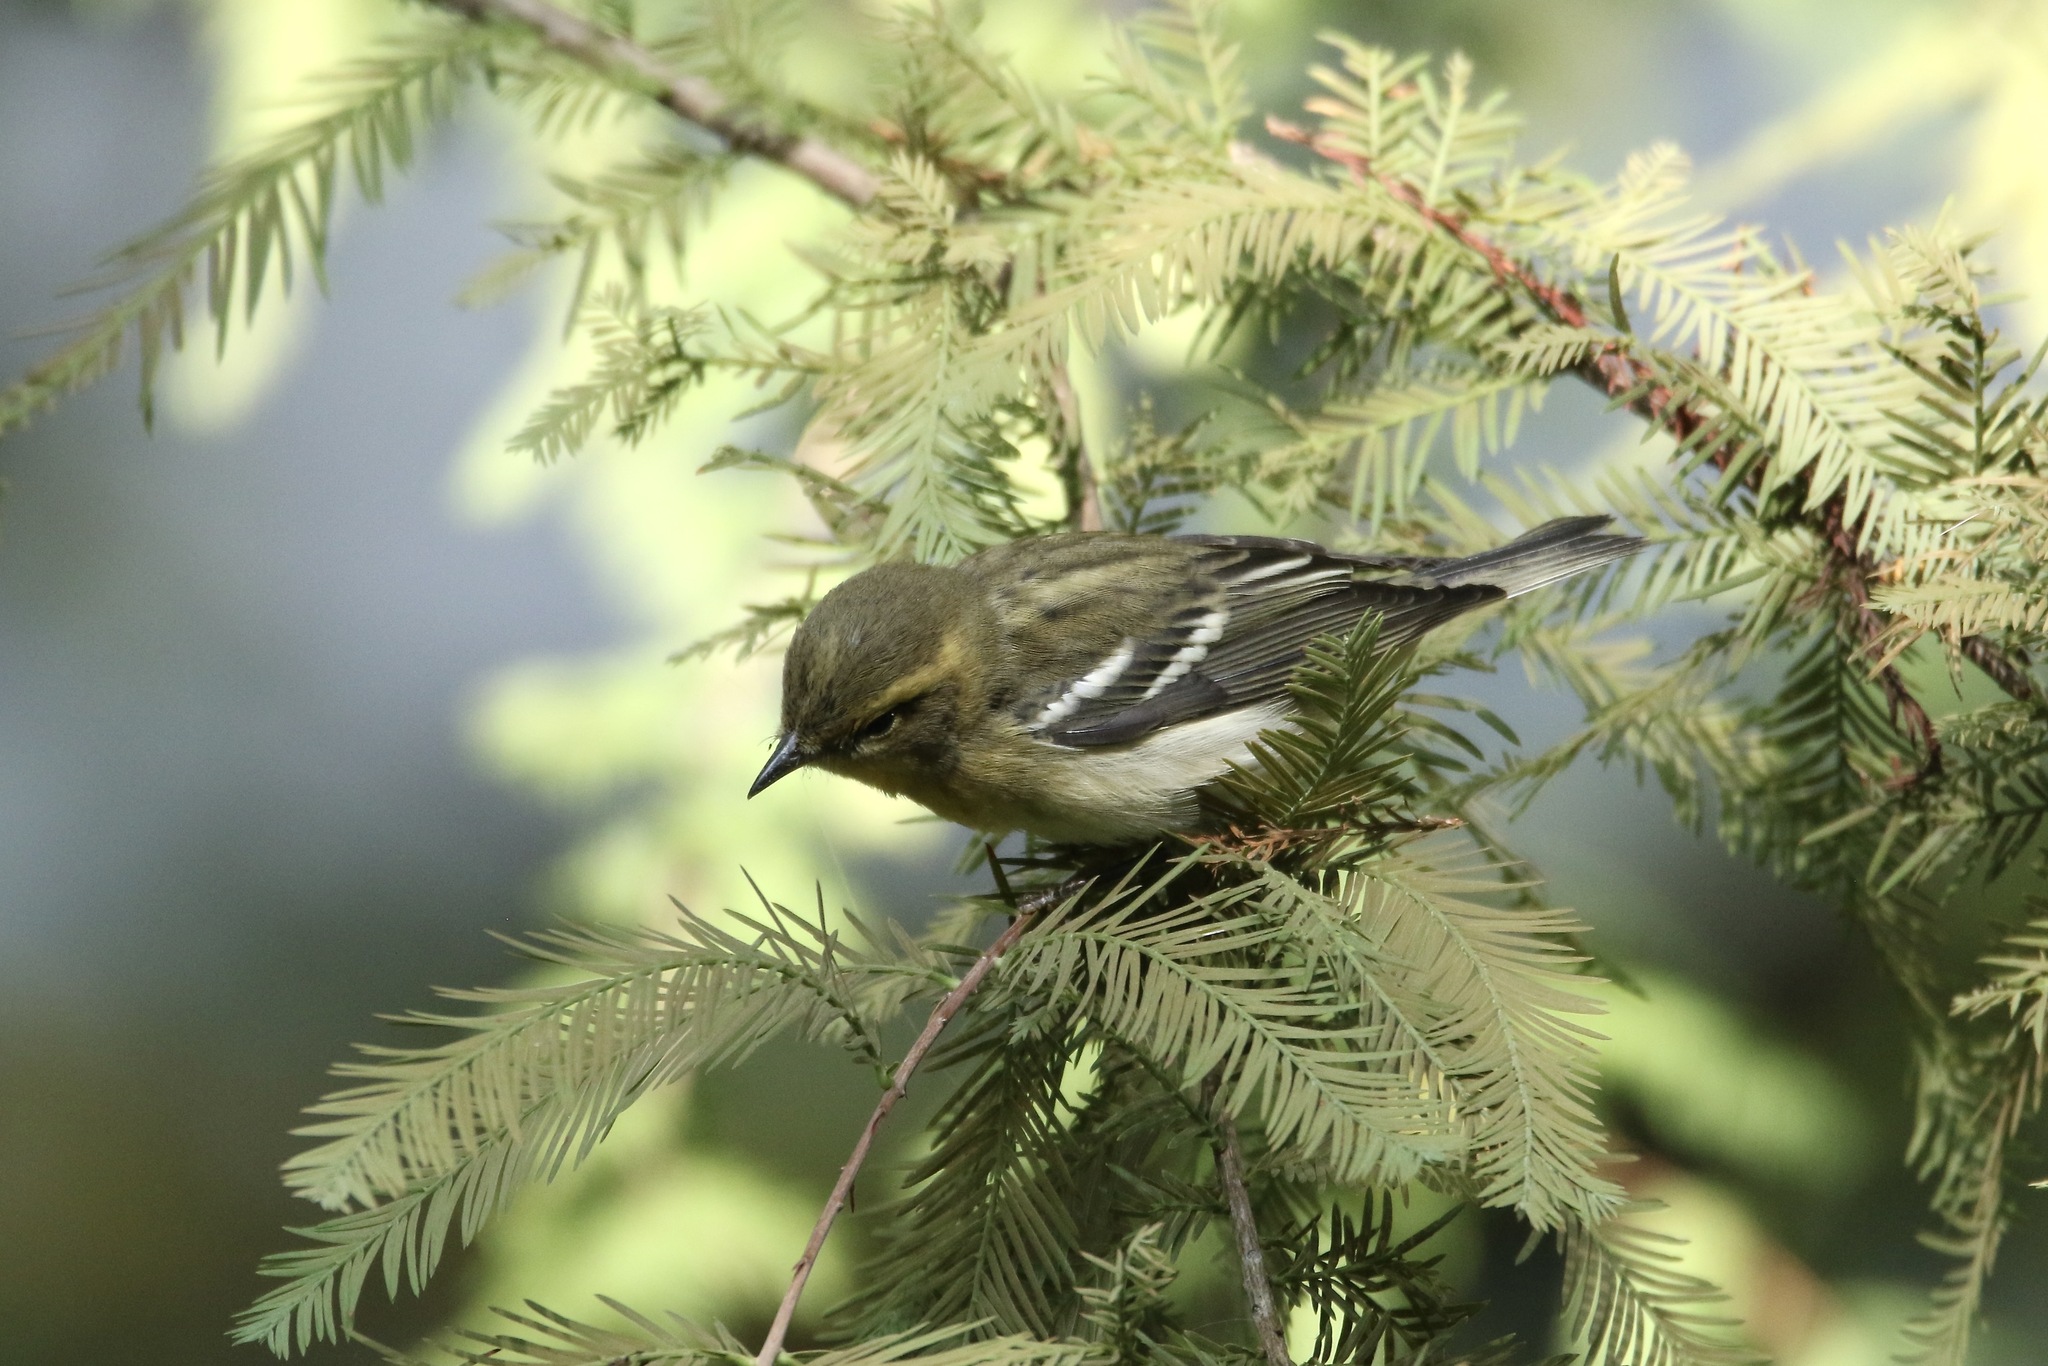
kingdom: Animalia
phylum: Chordata
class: Aves
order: Passeriformes
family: Parulidae
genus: Setophaga
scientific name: Setophaga fusca
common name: Blackburnian warbler
